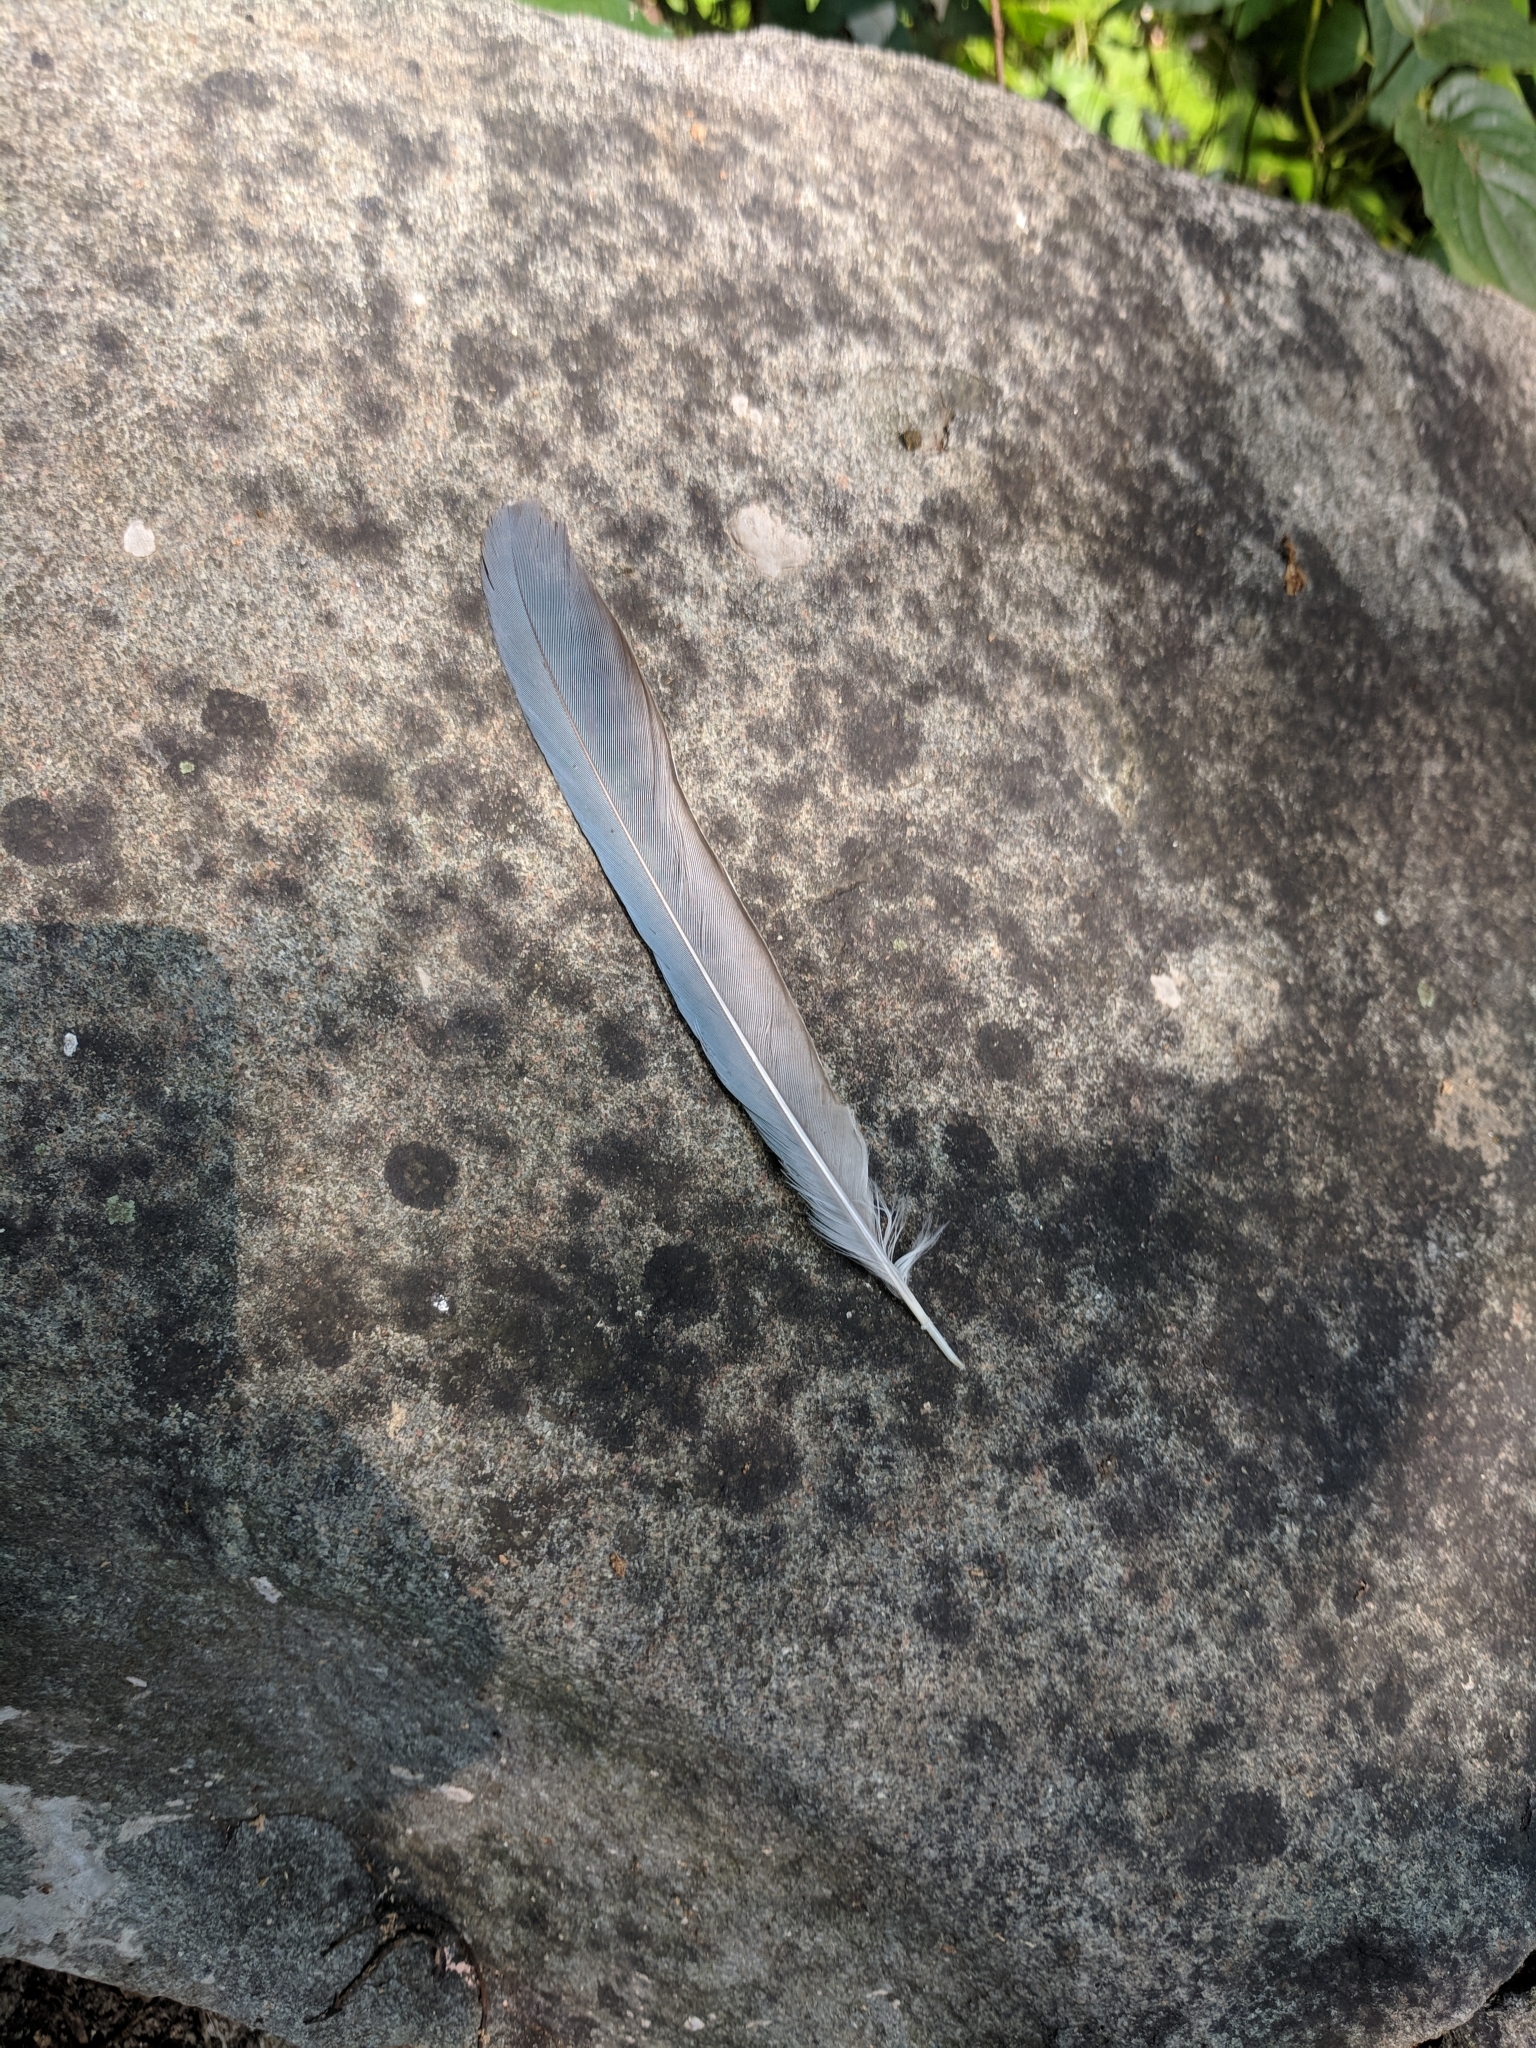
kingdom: Animalia
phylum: Chordata
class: Aves
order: Passeriformes
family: Corvidae
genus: Cyanopica
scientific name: Cyanopica cyanus
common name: Azure-winged magpie
